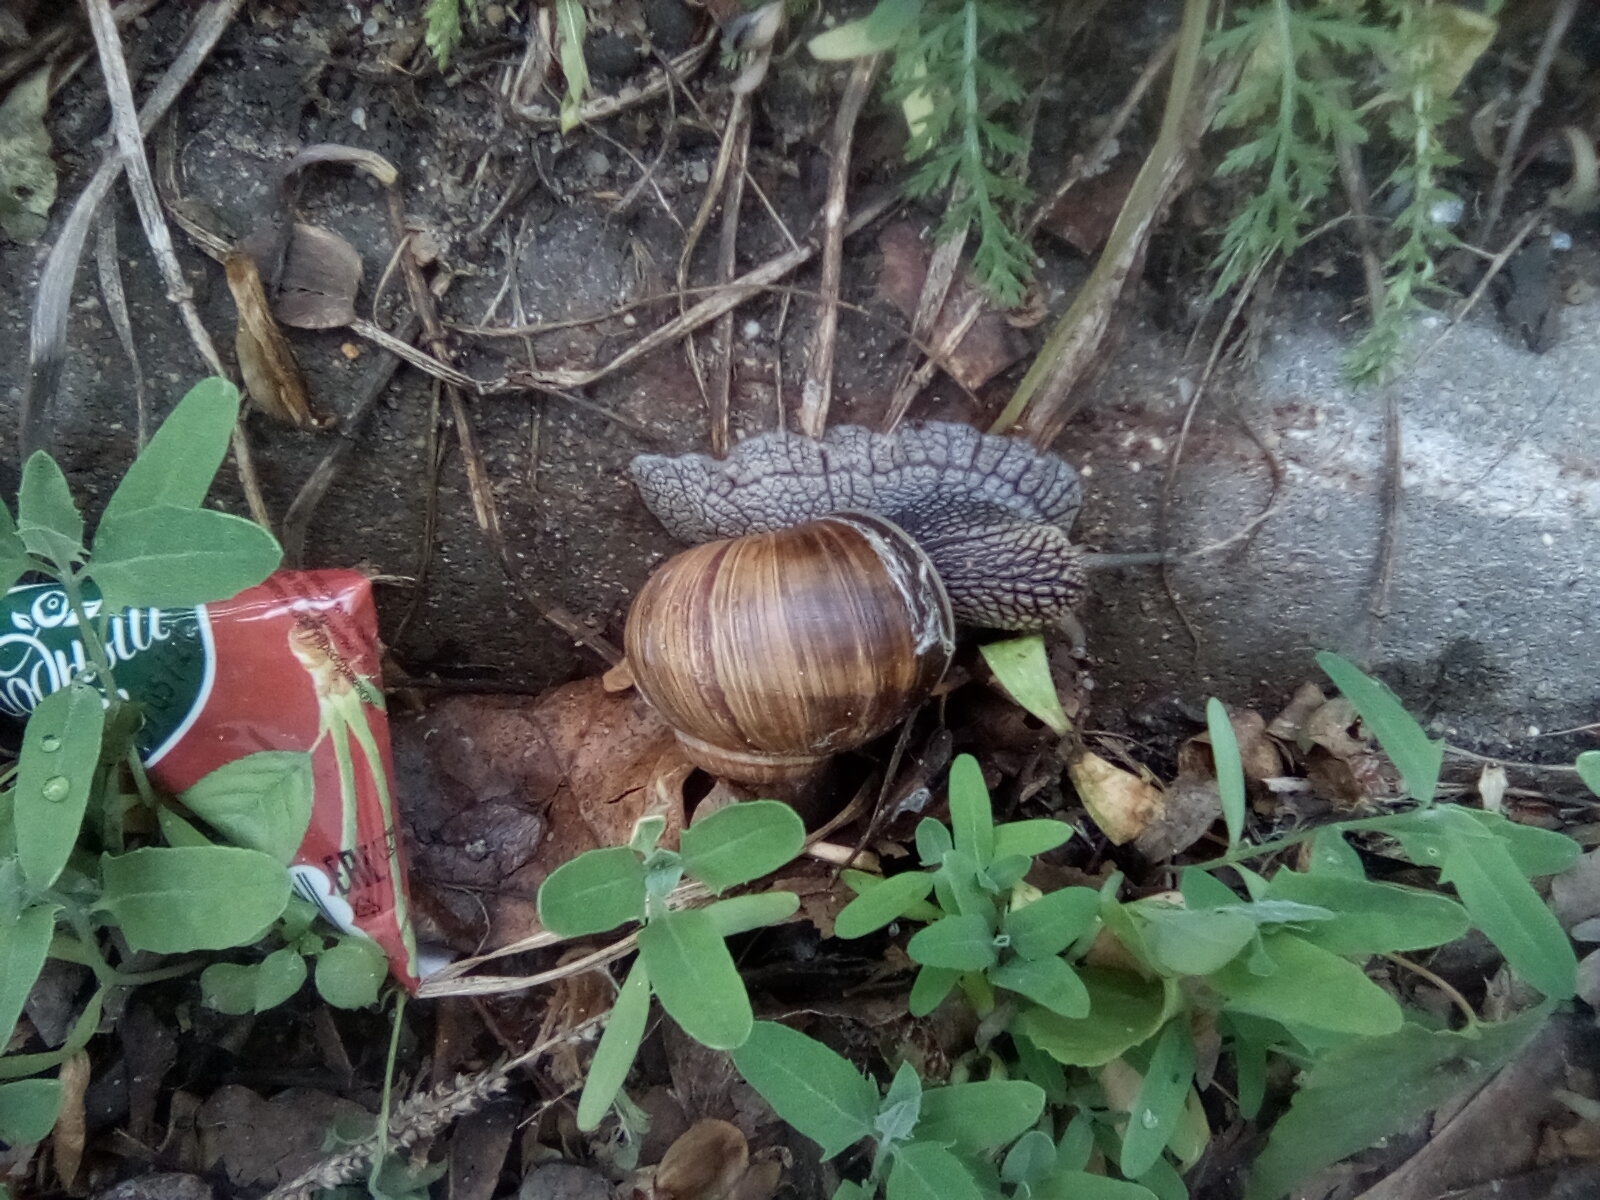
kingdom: Animalia
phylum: Mollusca
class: Gastropoda
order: Stylommatophora
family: Helicidae
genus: Helix
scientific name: Helix pomatia
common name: Roman snail
